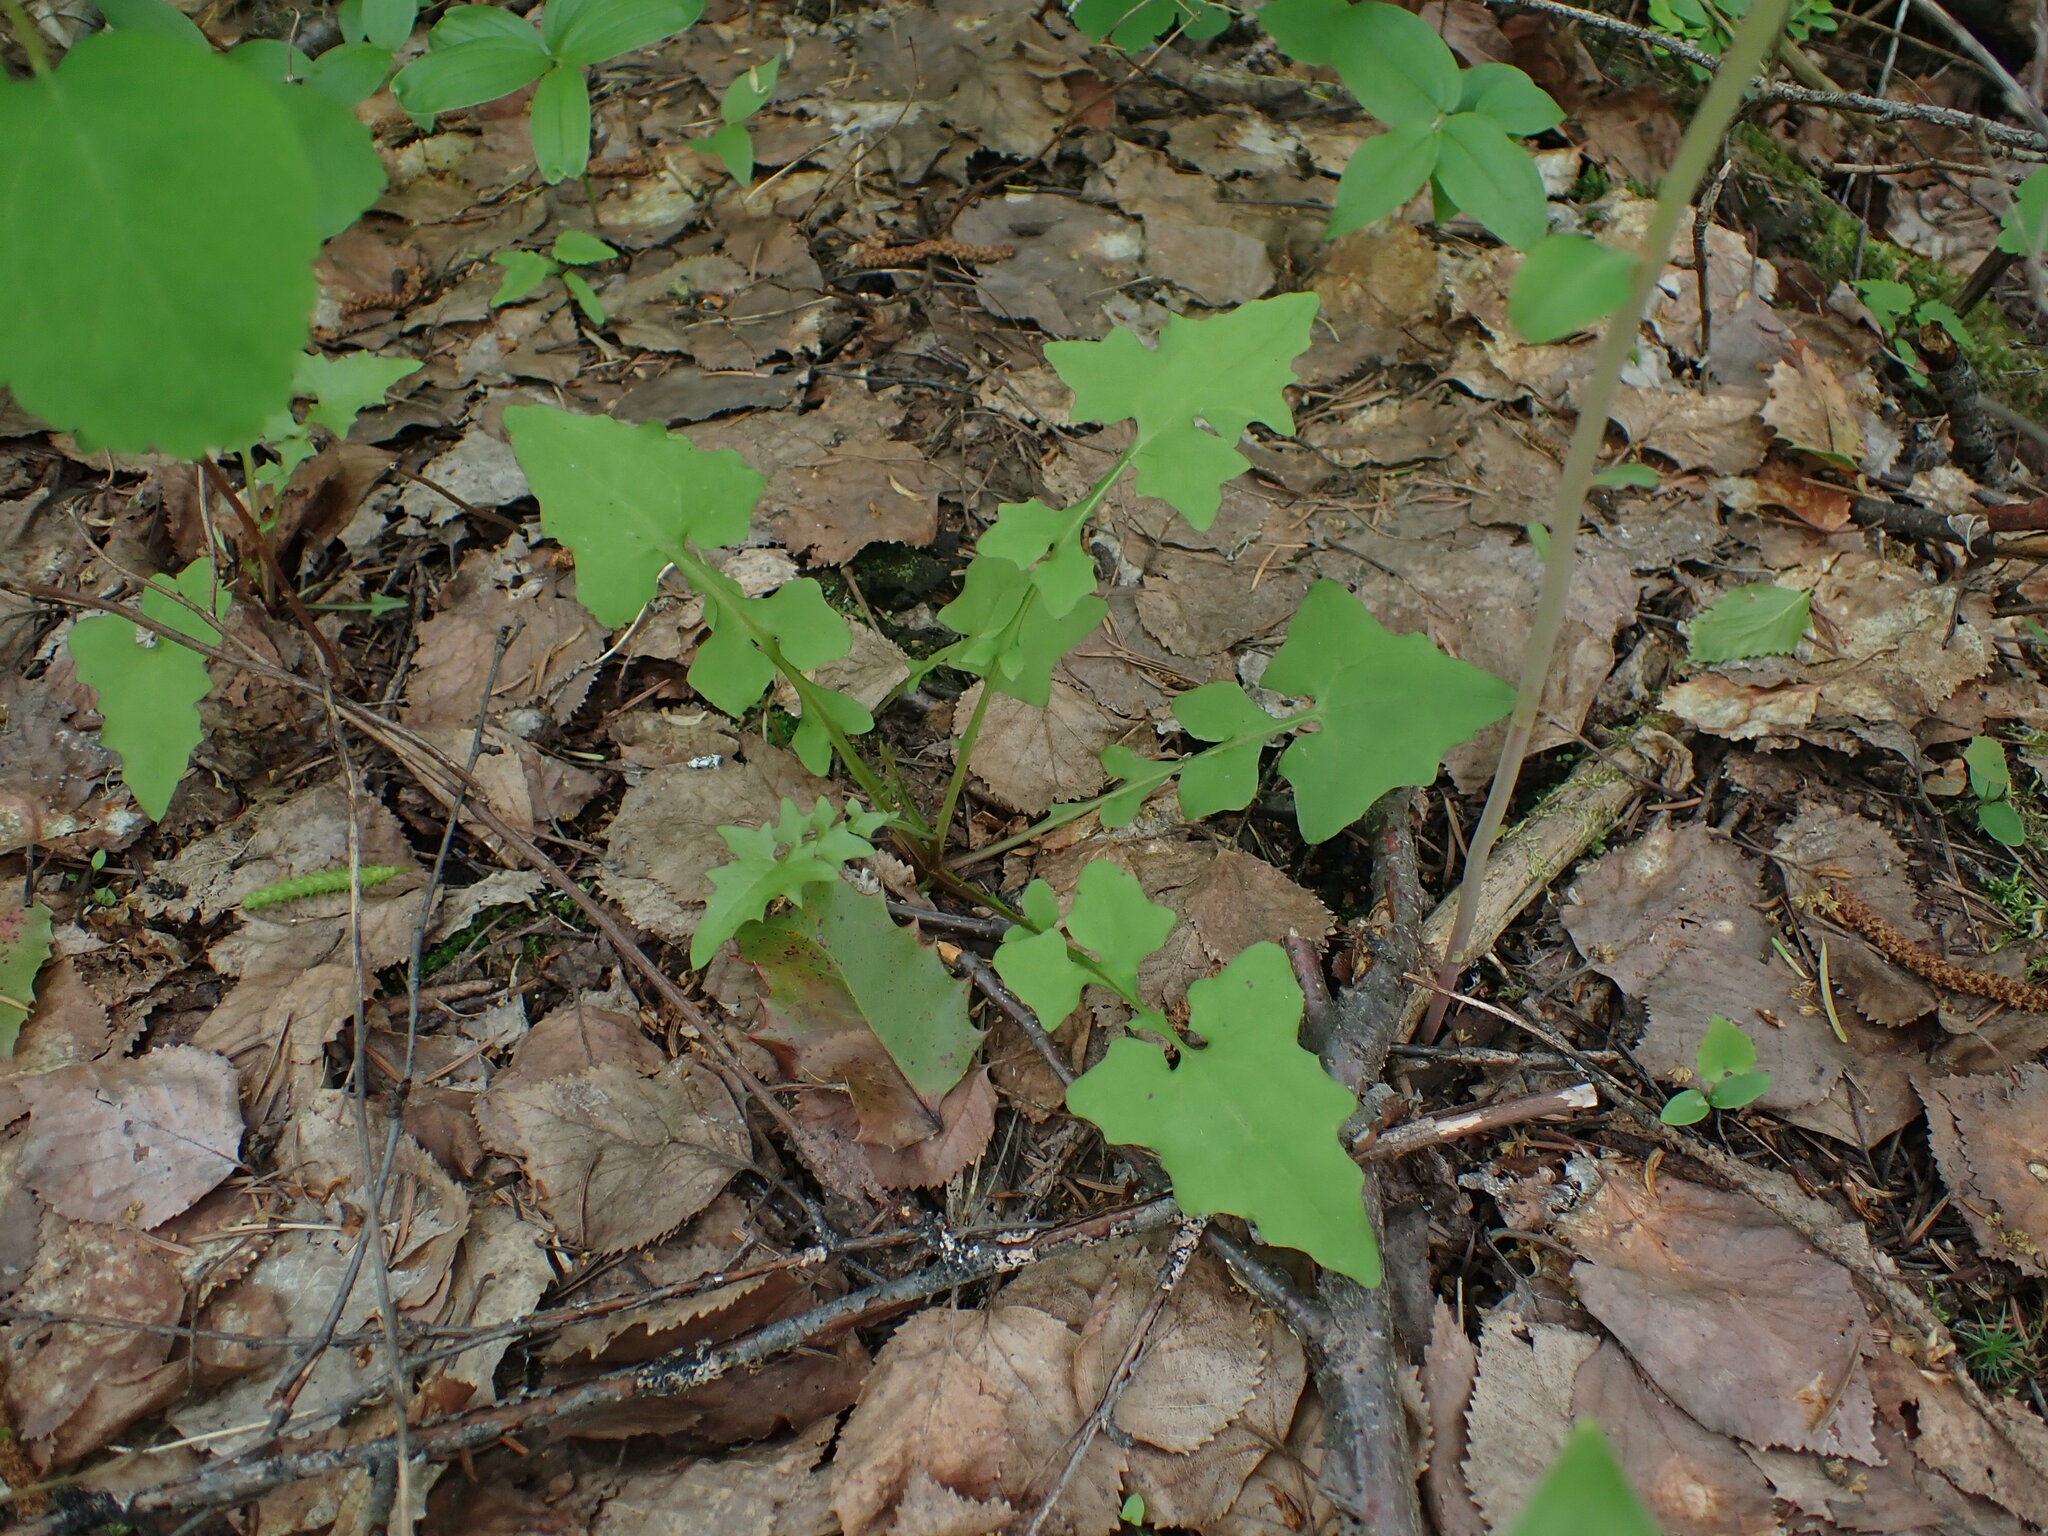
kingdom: Plantae
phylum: Tracheophyta
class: Magnoliopsida
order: Asterales
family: Asteraceae
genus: Mycelis
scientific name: Mycelis muralis
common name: Wall lettuce
